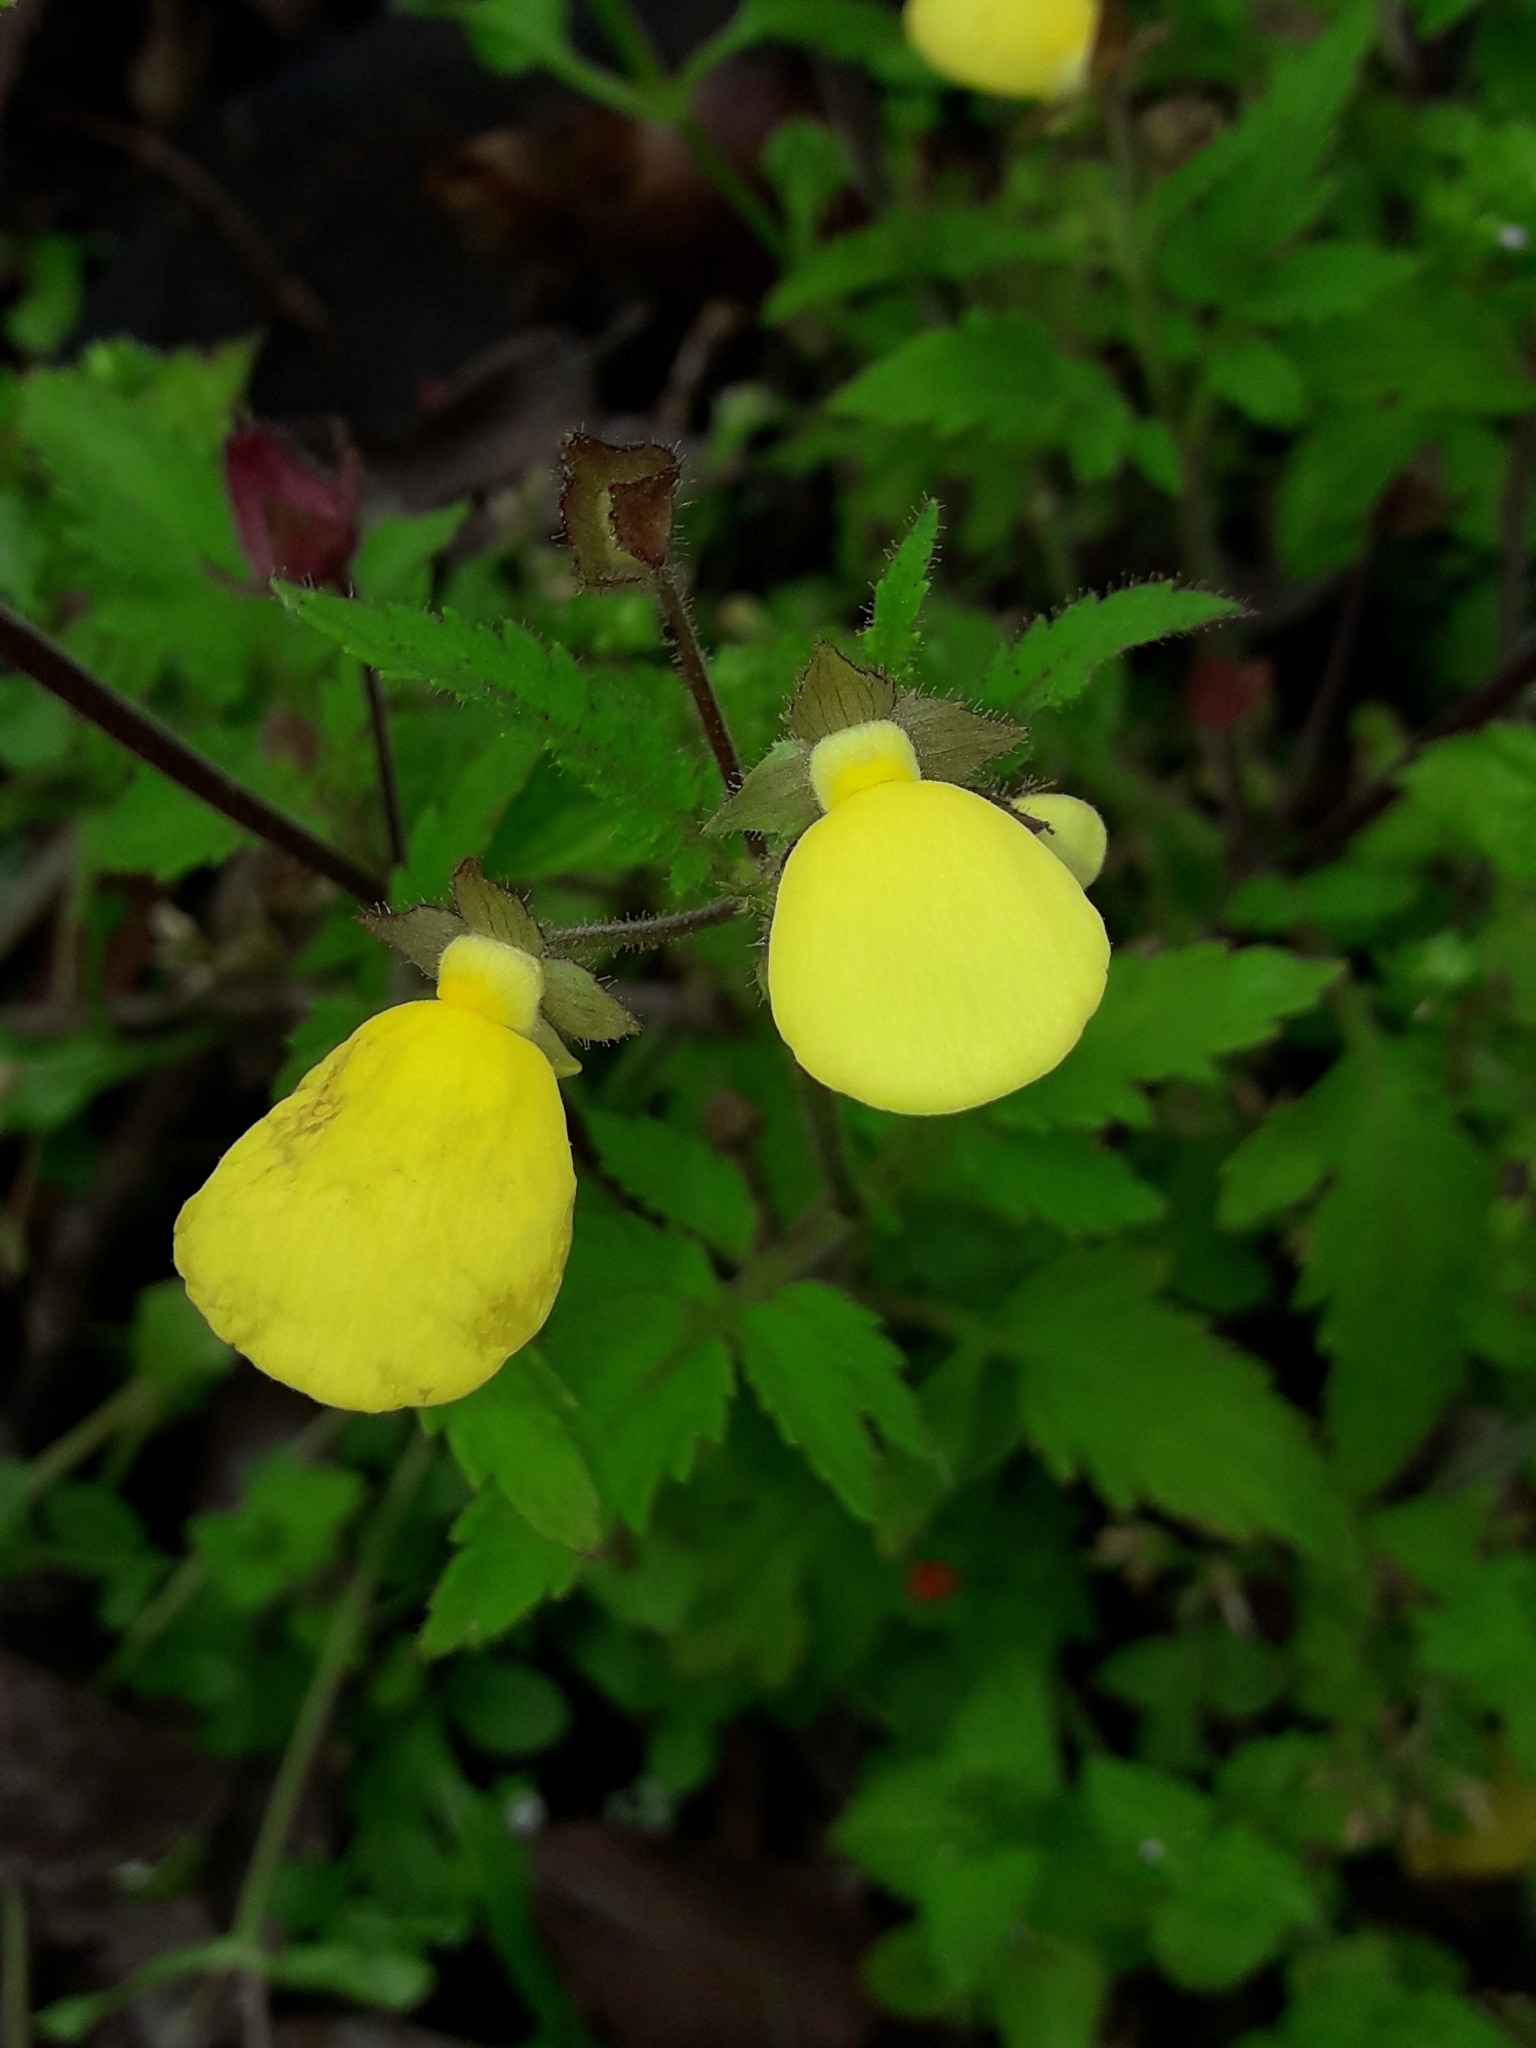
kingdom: Plantae
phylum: Tracheophyta
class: Magnoliopsida
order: Lamiales
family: Calceolariaceae
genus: Calceolaria
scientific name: Calceolaria tripartita
